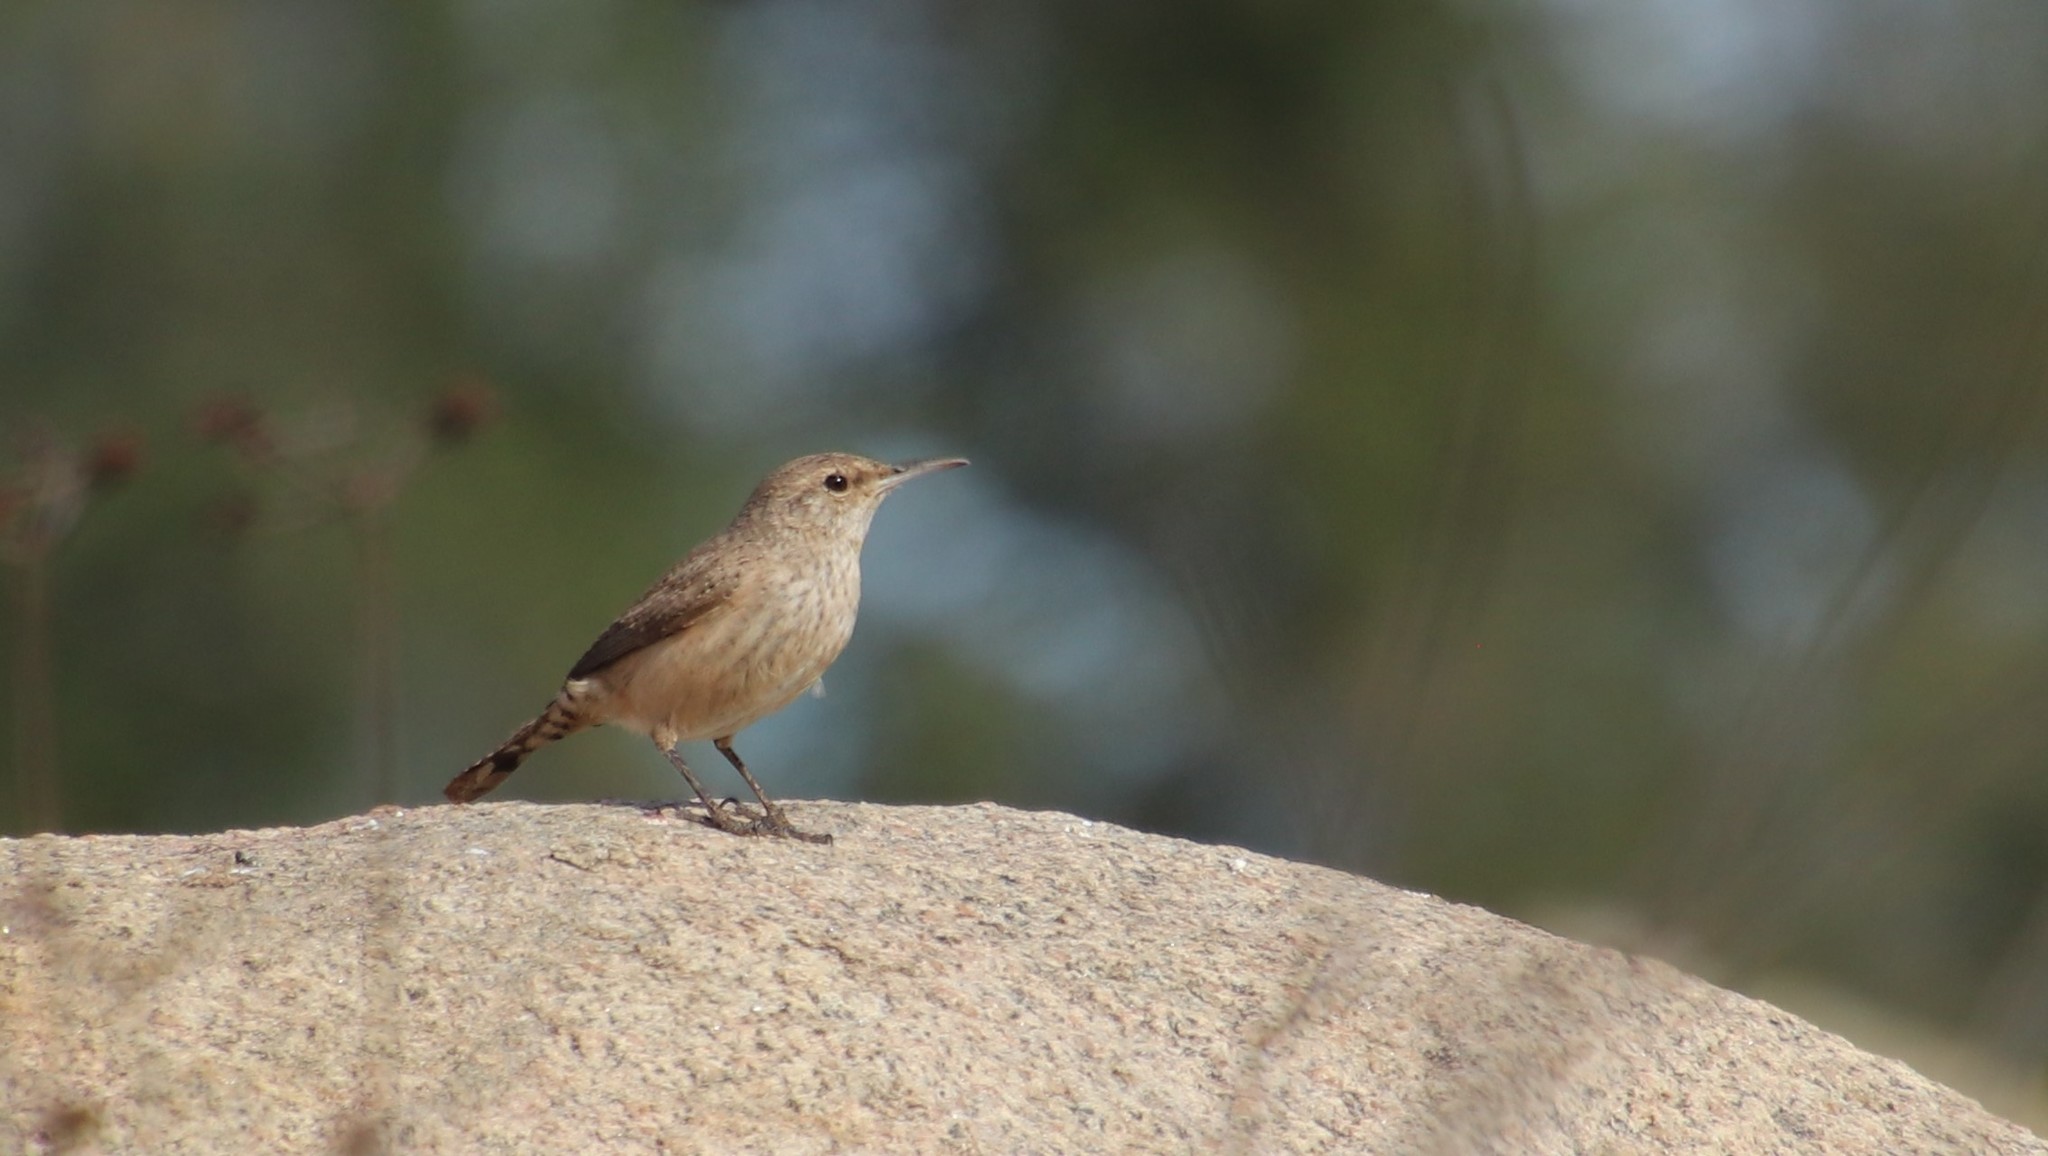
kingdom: Animalia
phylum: Chordata
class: Aves
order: Passeriformes
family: Troglodytidae
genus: Salpinctes
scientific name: Salpinctes obsoletus
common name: Rock wren
